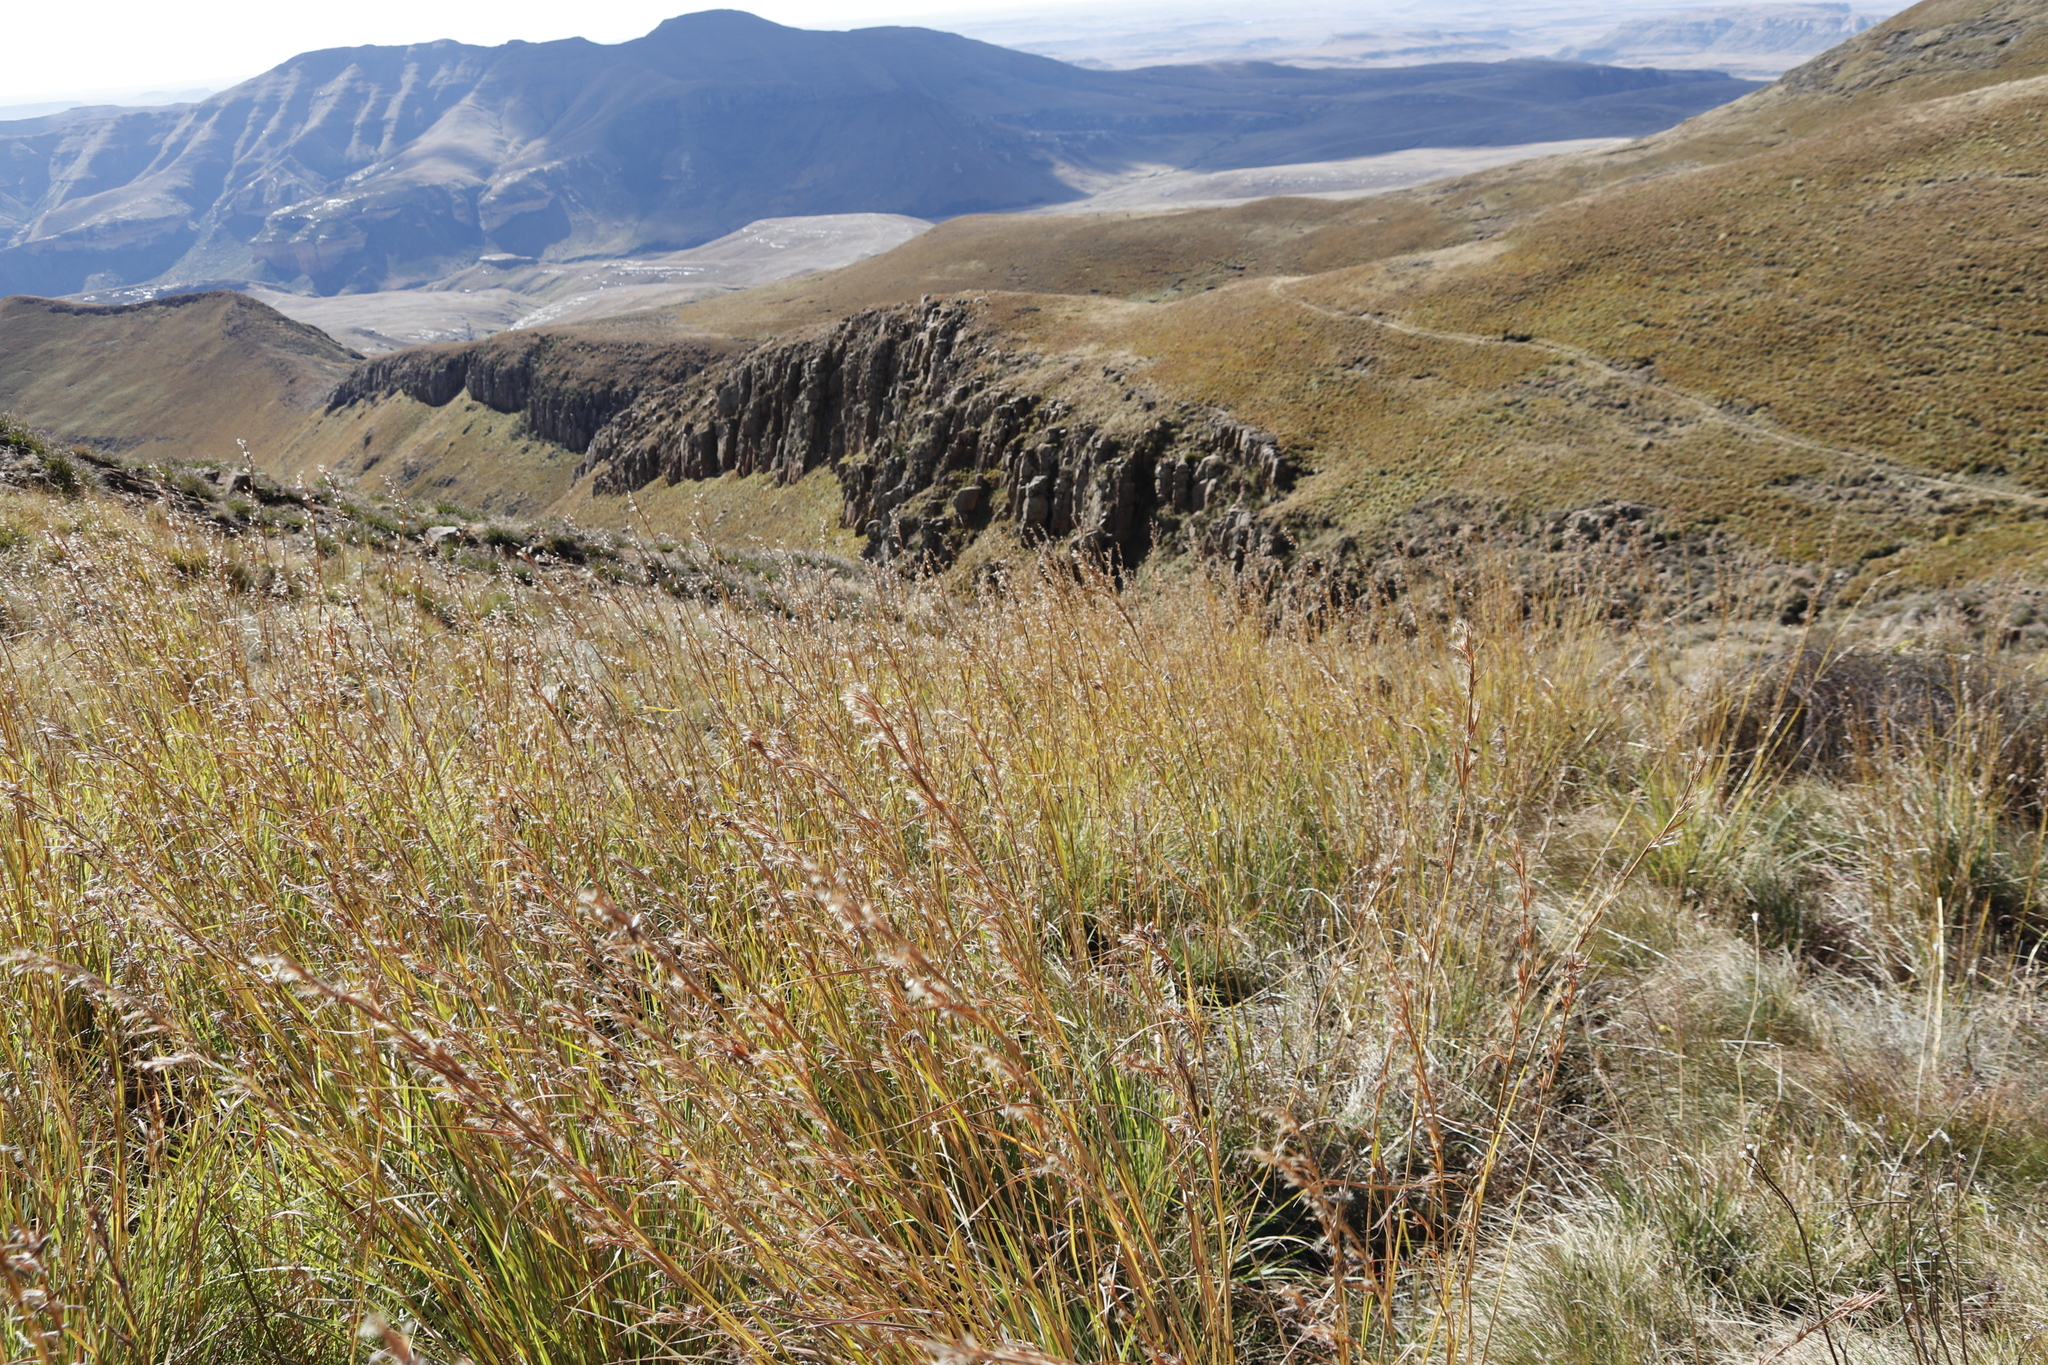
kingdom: Plantae
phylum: Tracheophyta
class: Liliopsida
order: Poales
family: Poaceae
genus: Hyparrhenia
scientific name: Hyparrhenia hirta
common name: Thatching grass
